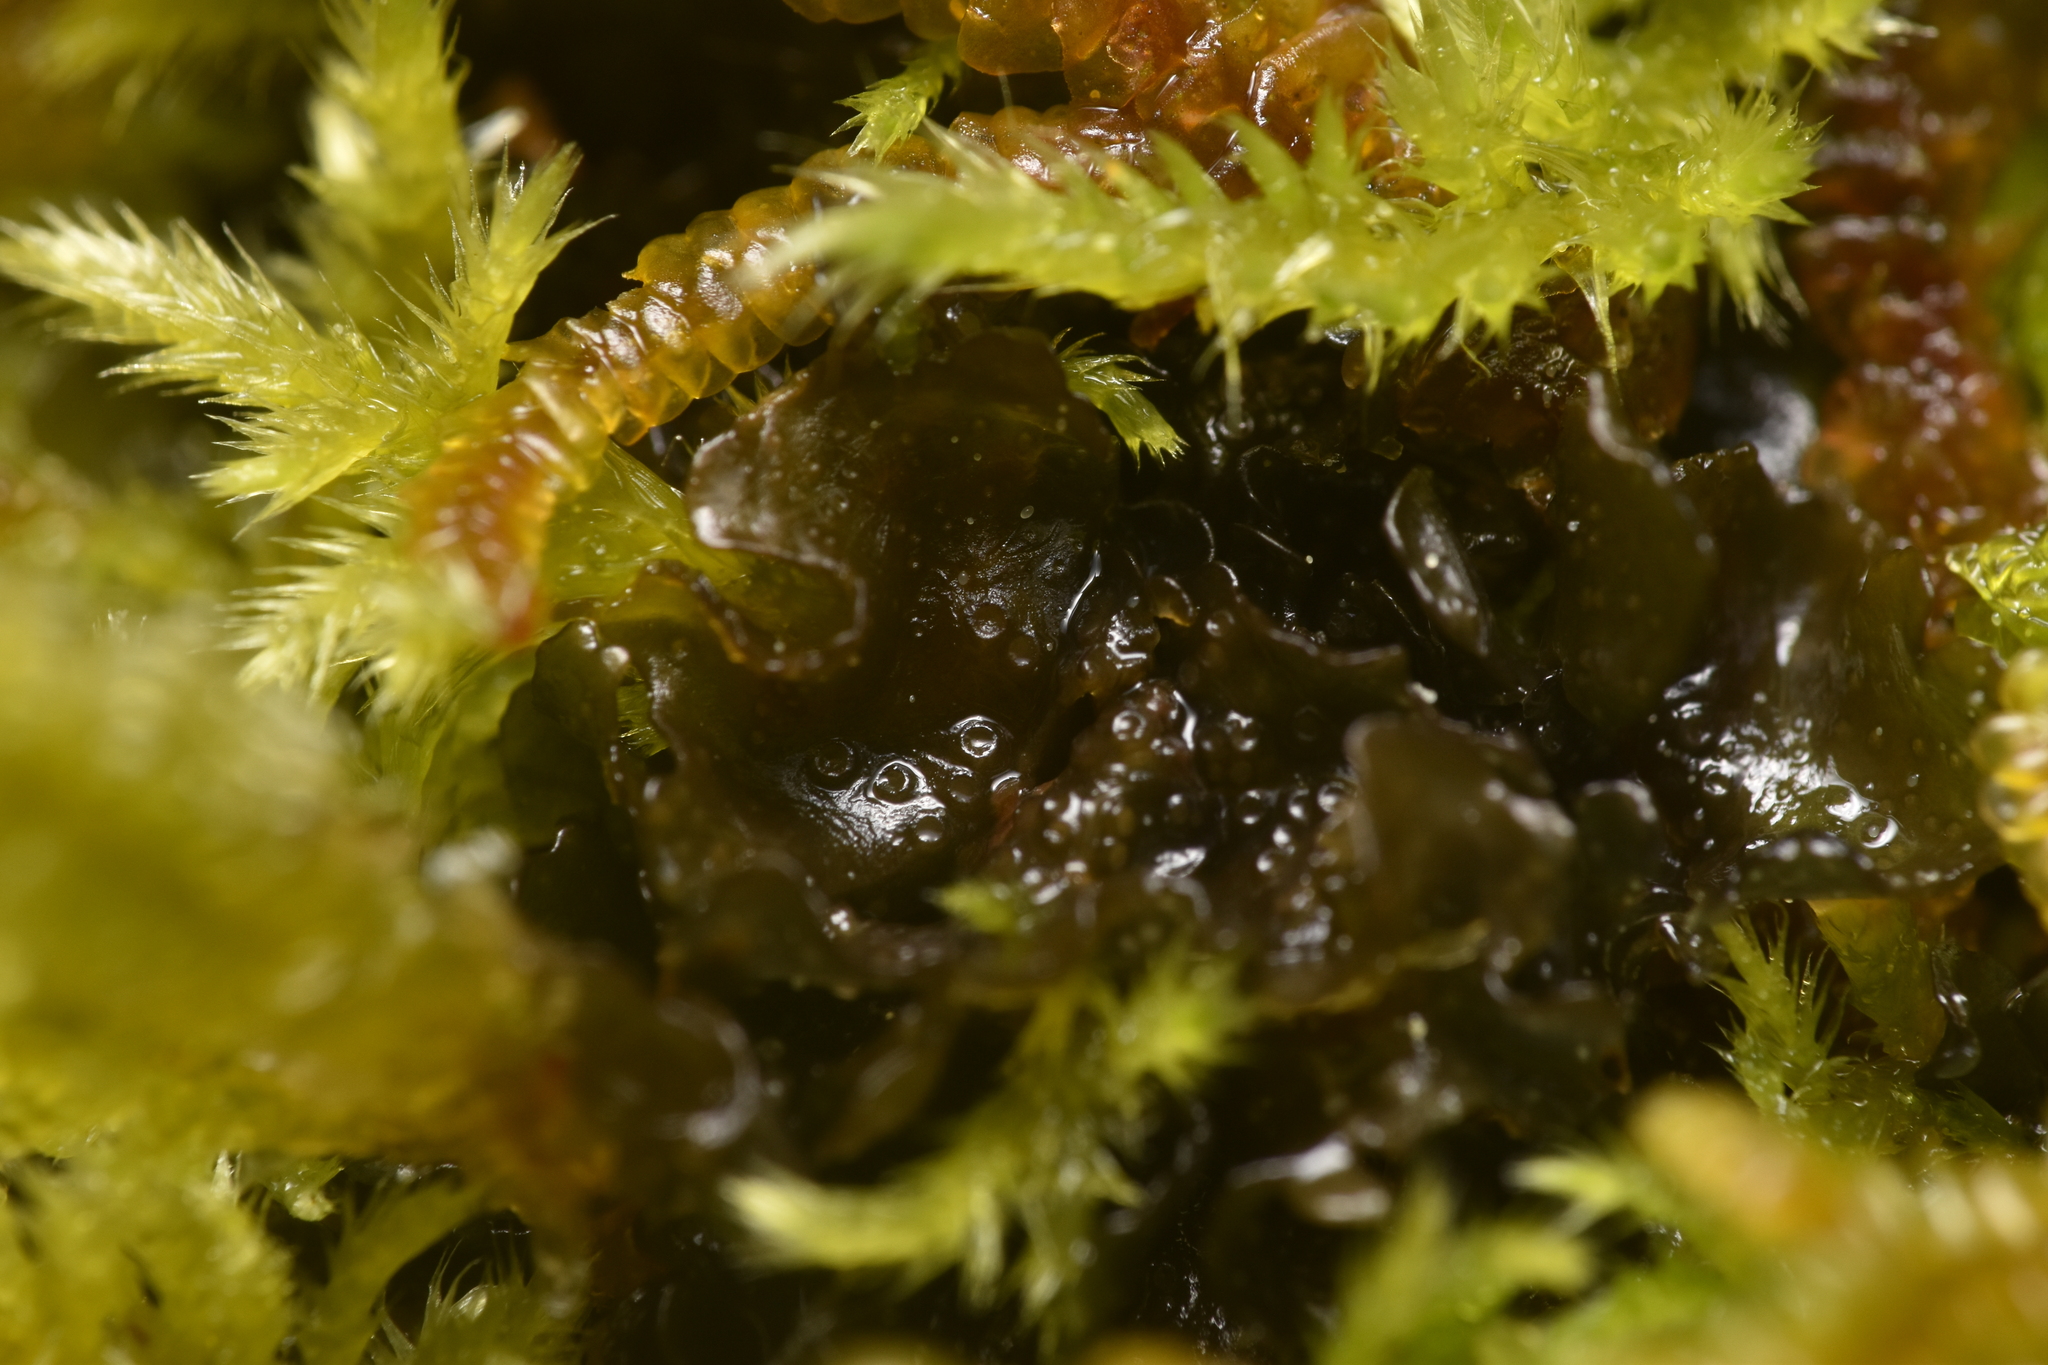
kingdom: Fungi
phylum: Ascomycota
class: Lecanoromycetes
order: Peltigerales
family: Collemataceae
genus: Scytinium
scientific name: Scytinium polycarpum
